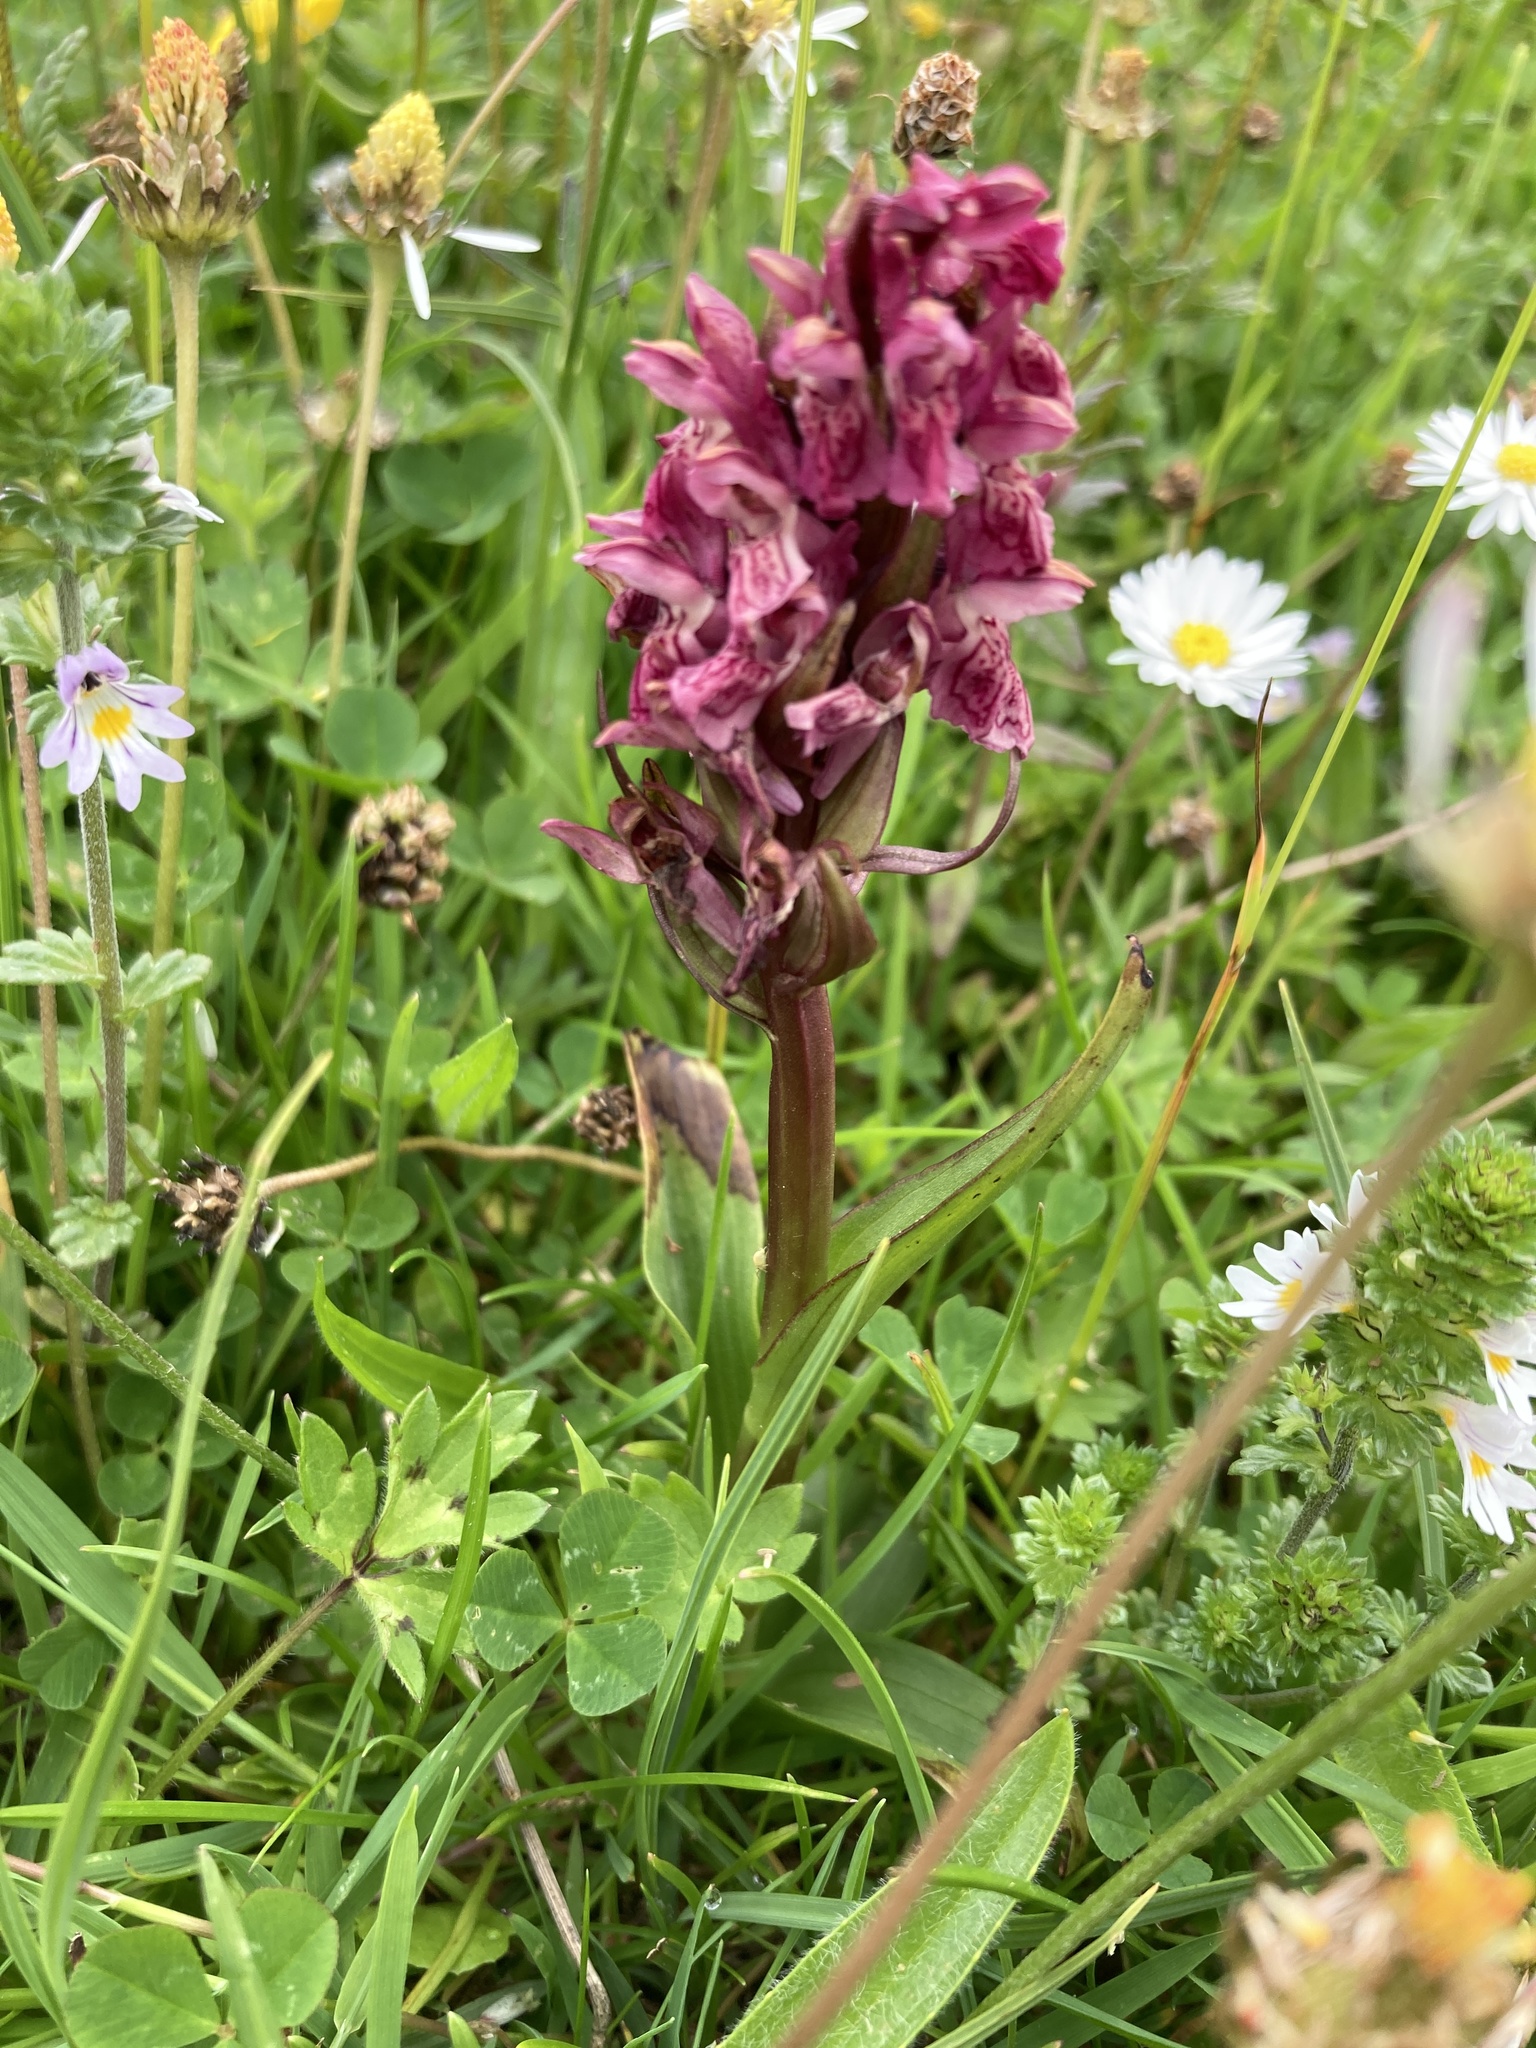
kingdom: Plantae
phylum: Tracheophyta
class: Liliopsida
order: Asparagales
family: Orchidaceae
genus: Dactylorhiza
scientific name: Dactylorhiza incarnata
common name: Early marsh-orchid
